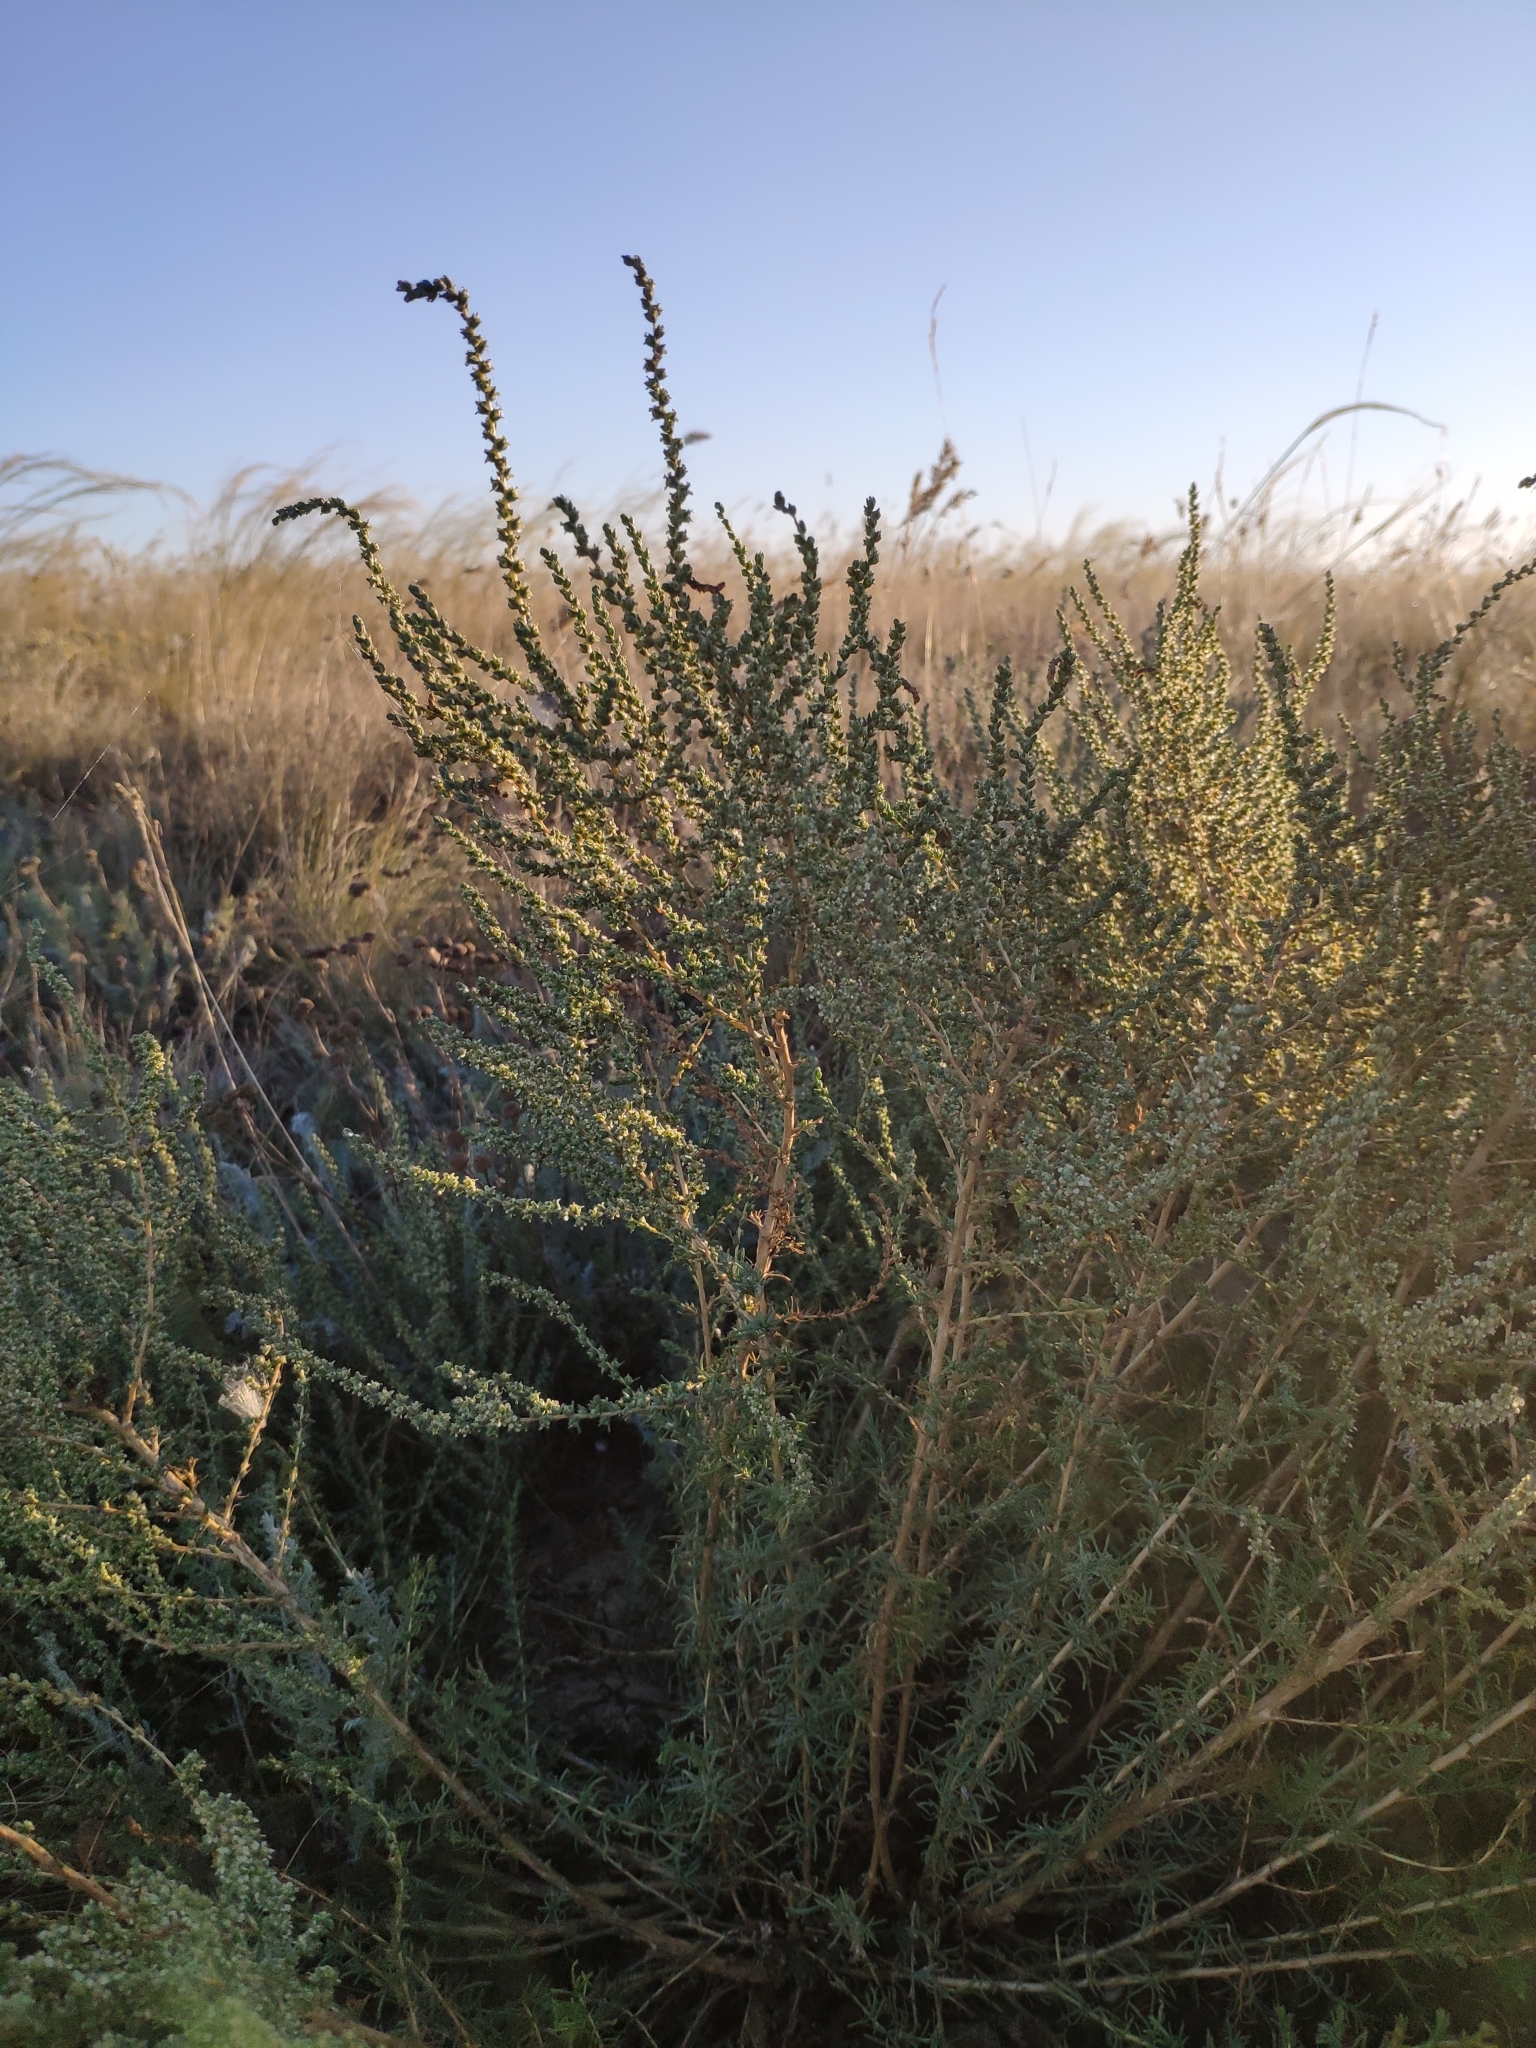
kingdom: Plantae
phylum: Tracheophyta
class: Magnoliopsida
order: Caryophyllales
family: Amaranthaceae
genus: Nitrosalsola
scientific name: Nitrosalsola laricina
